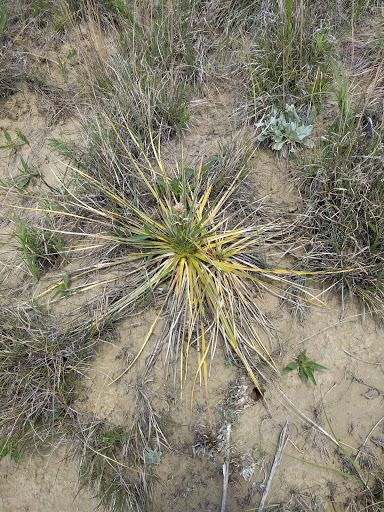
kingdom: Plantae
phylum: Tracheophyta
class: Liliopsida
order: Asparagales
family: Asparagaceae
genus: Yucca
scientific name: Yucca glauca
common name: Great plains yucca
